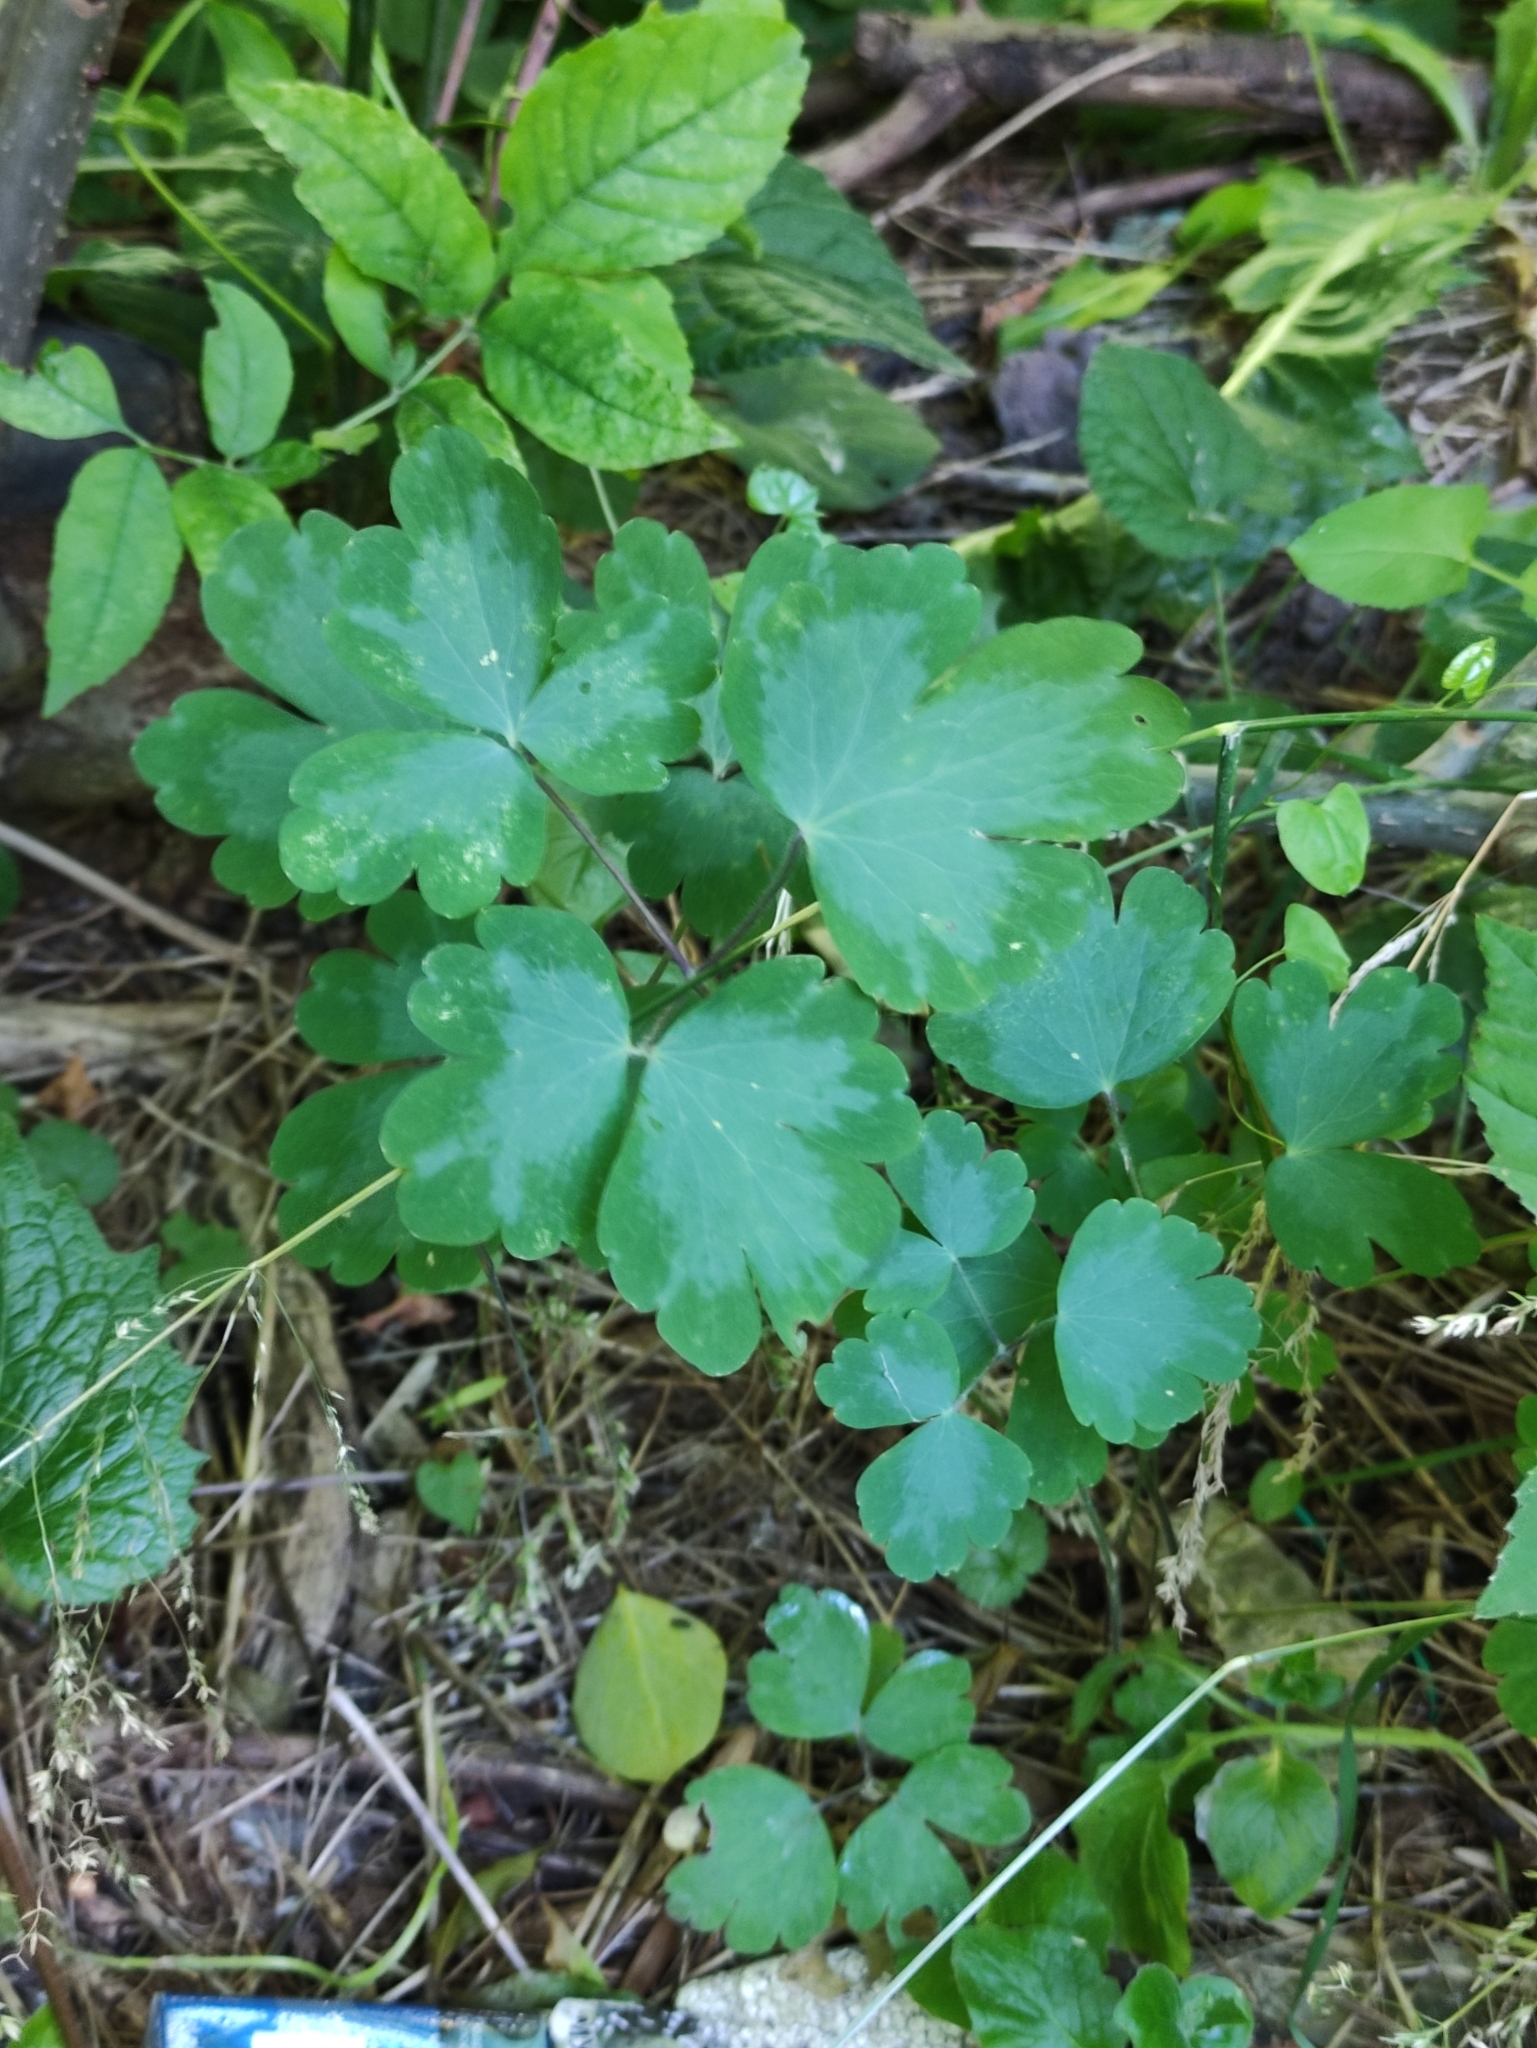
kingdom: Plantae
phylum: Tracheophyta
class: Magnoliopsida
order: Ranunculales
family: Ranunculaceae
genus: Aquilegia
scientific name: Aquilegia vulgaris
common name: Columbine
